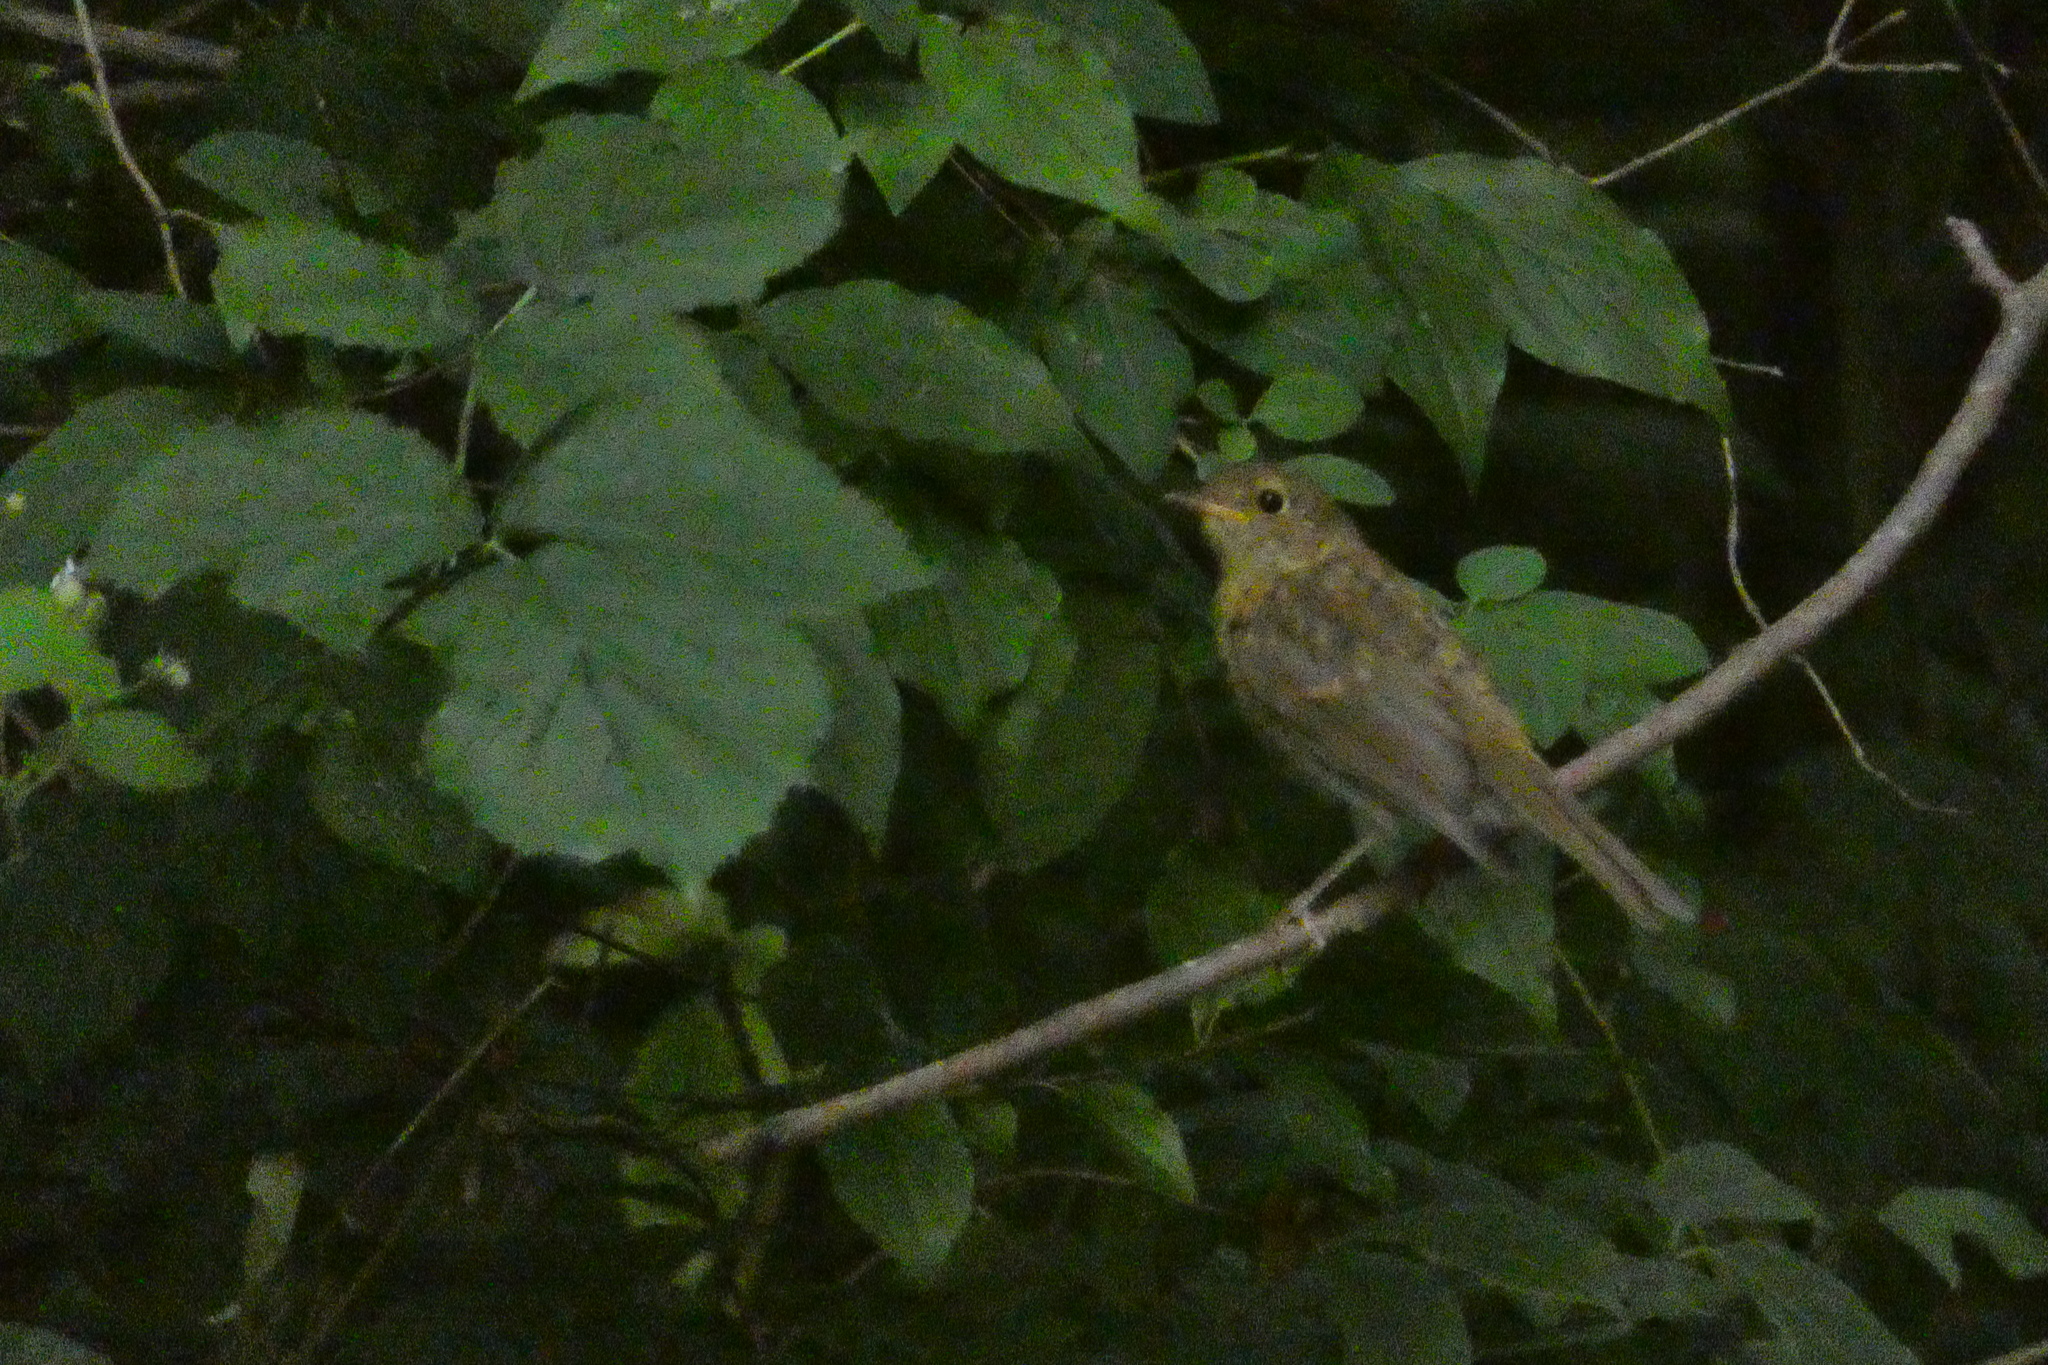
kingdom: Animalia
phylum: Chordata
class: Aves
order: Passeriformes
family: Muscicapidae
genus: Erithacus
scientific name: Erithacus rubecula
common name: European robin
